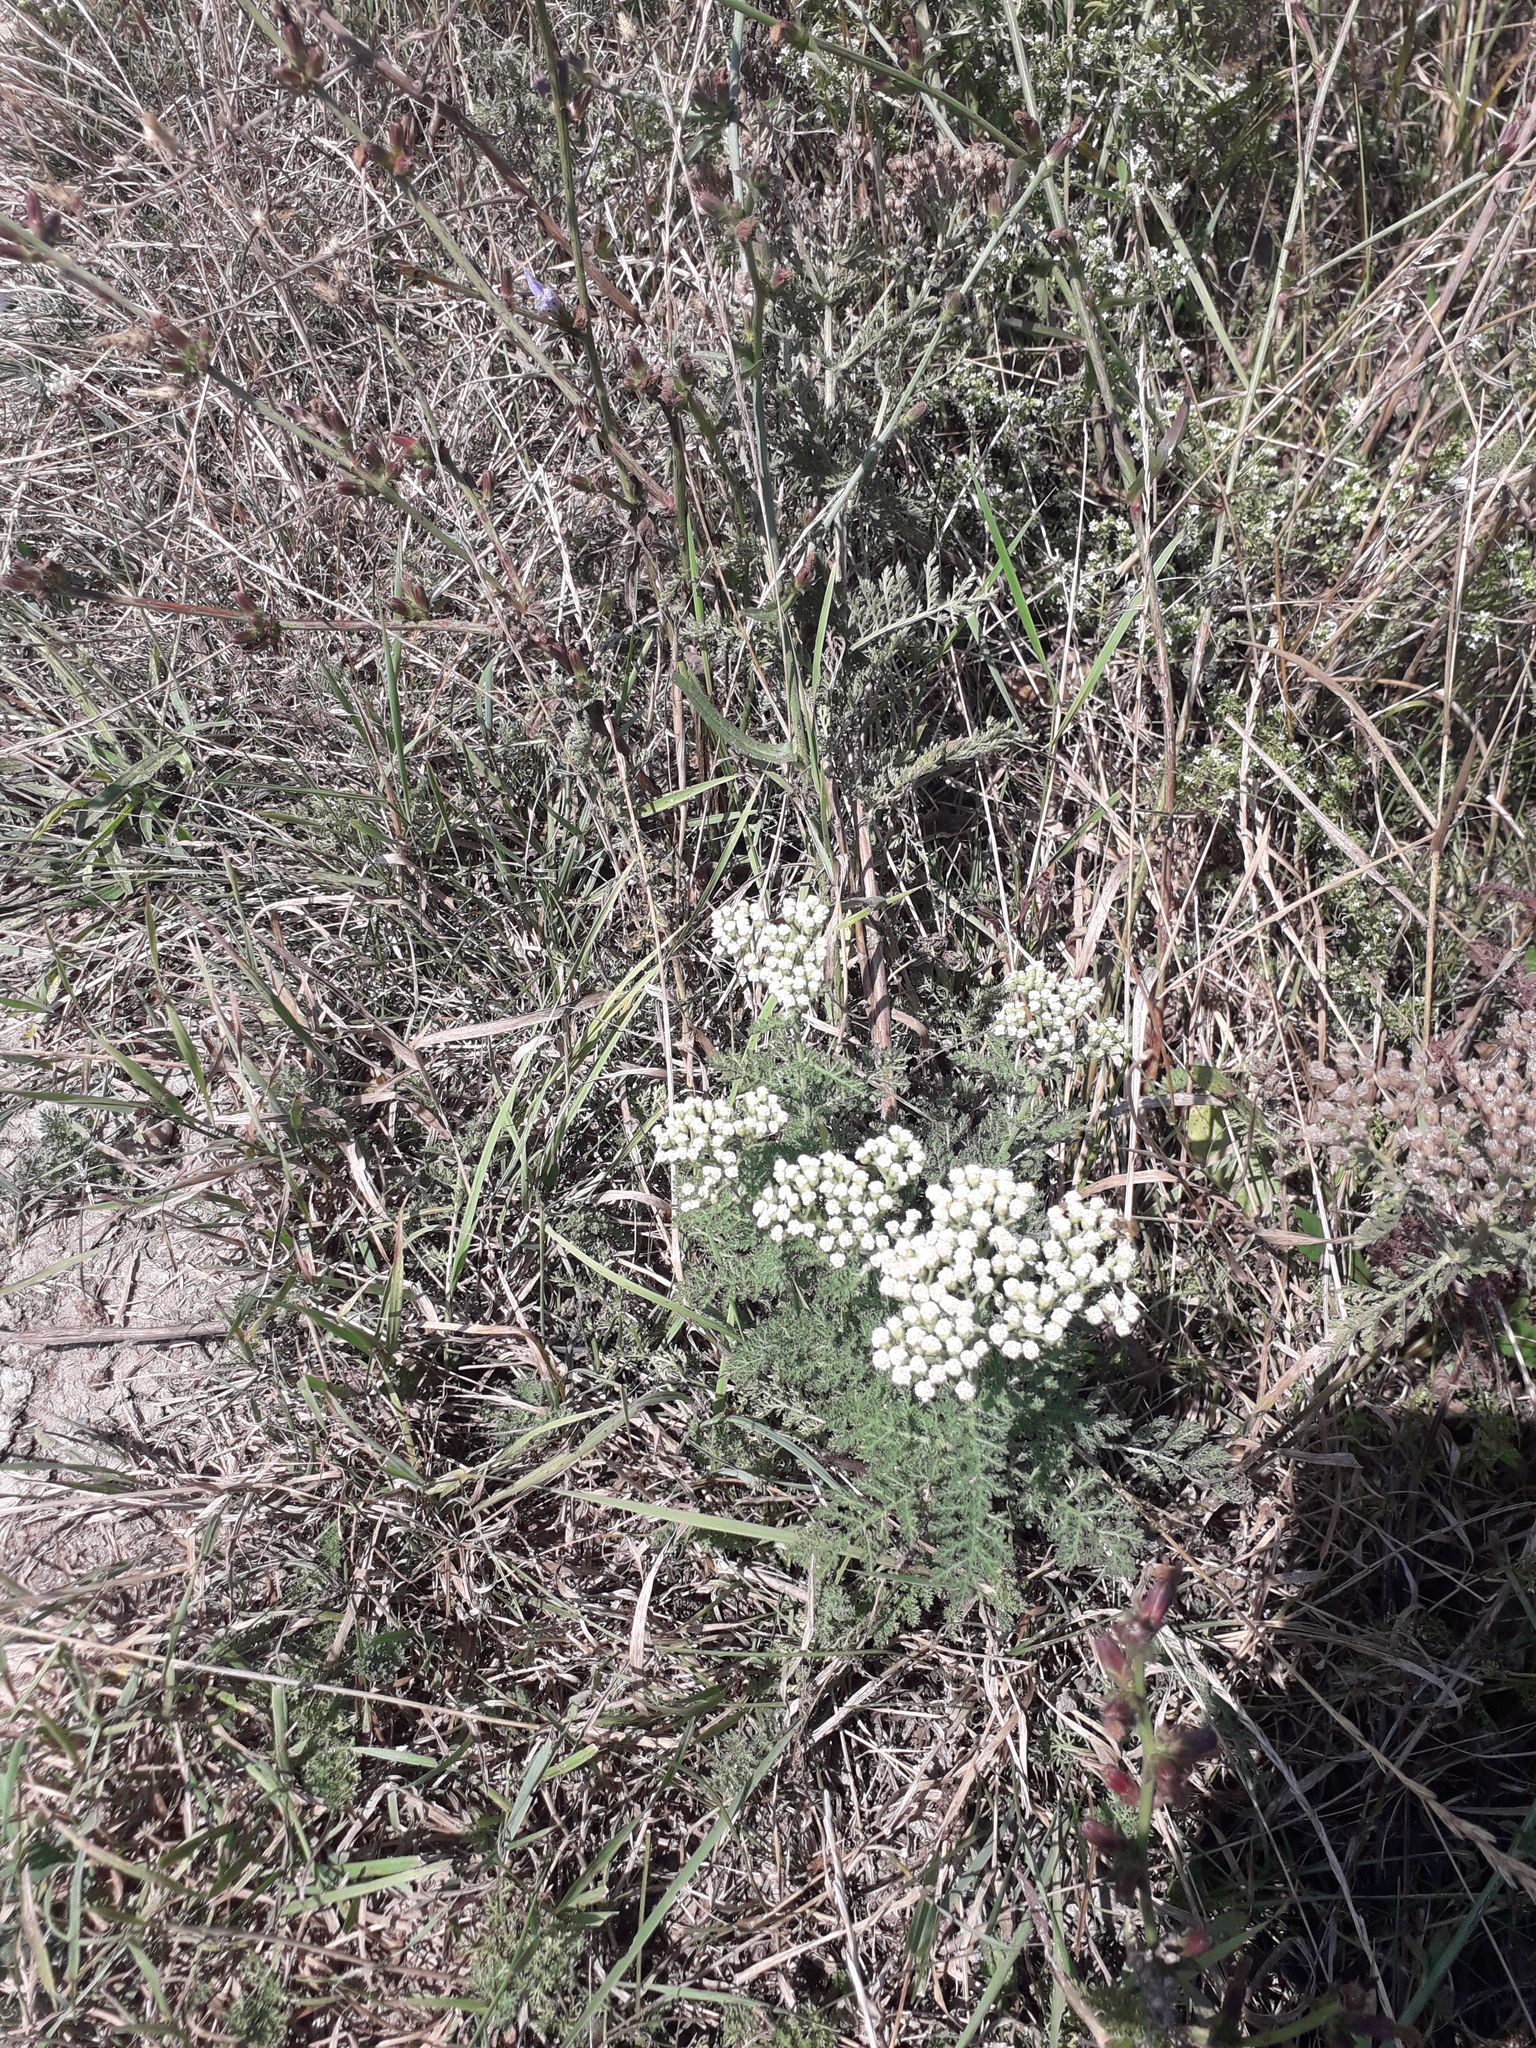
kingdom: Plantae
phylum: Tracheophyta
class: Magnoliopsida
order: Asterales
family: Asteraceae
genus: Achillea
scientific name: Achillea nobilis
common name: Noble yarrow
